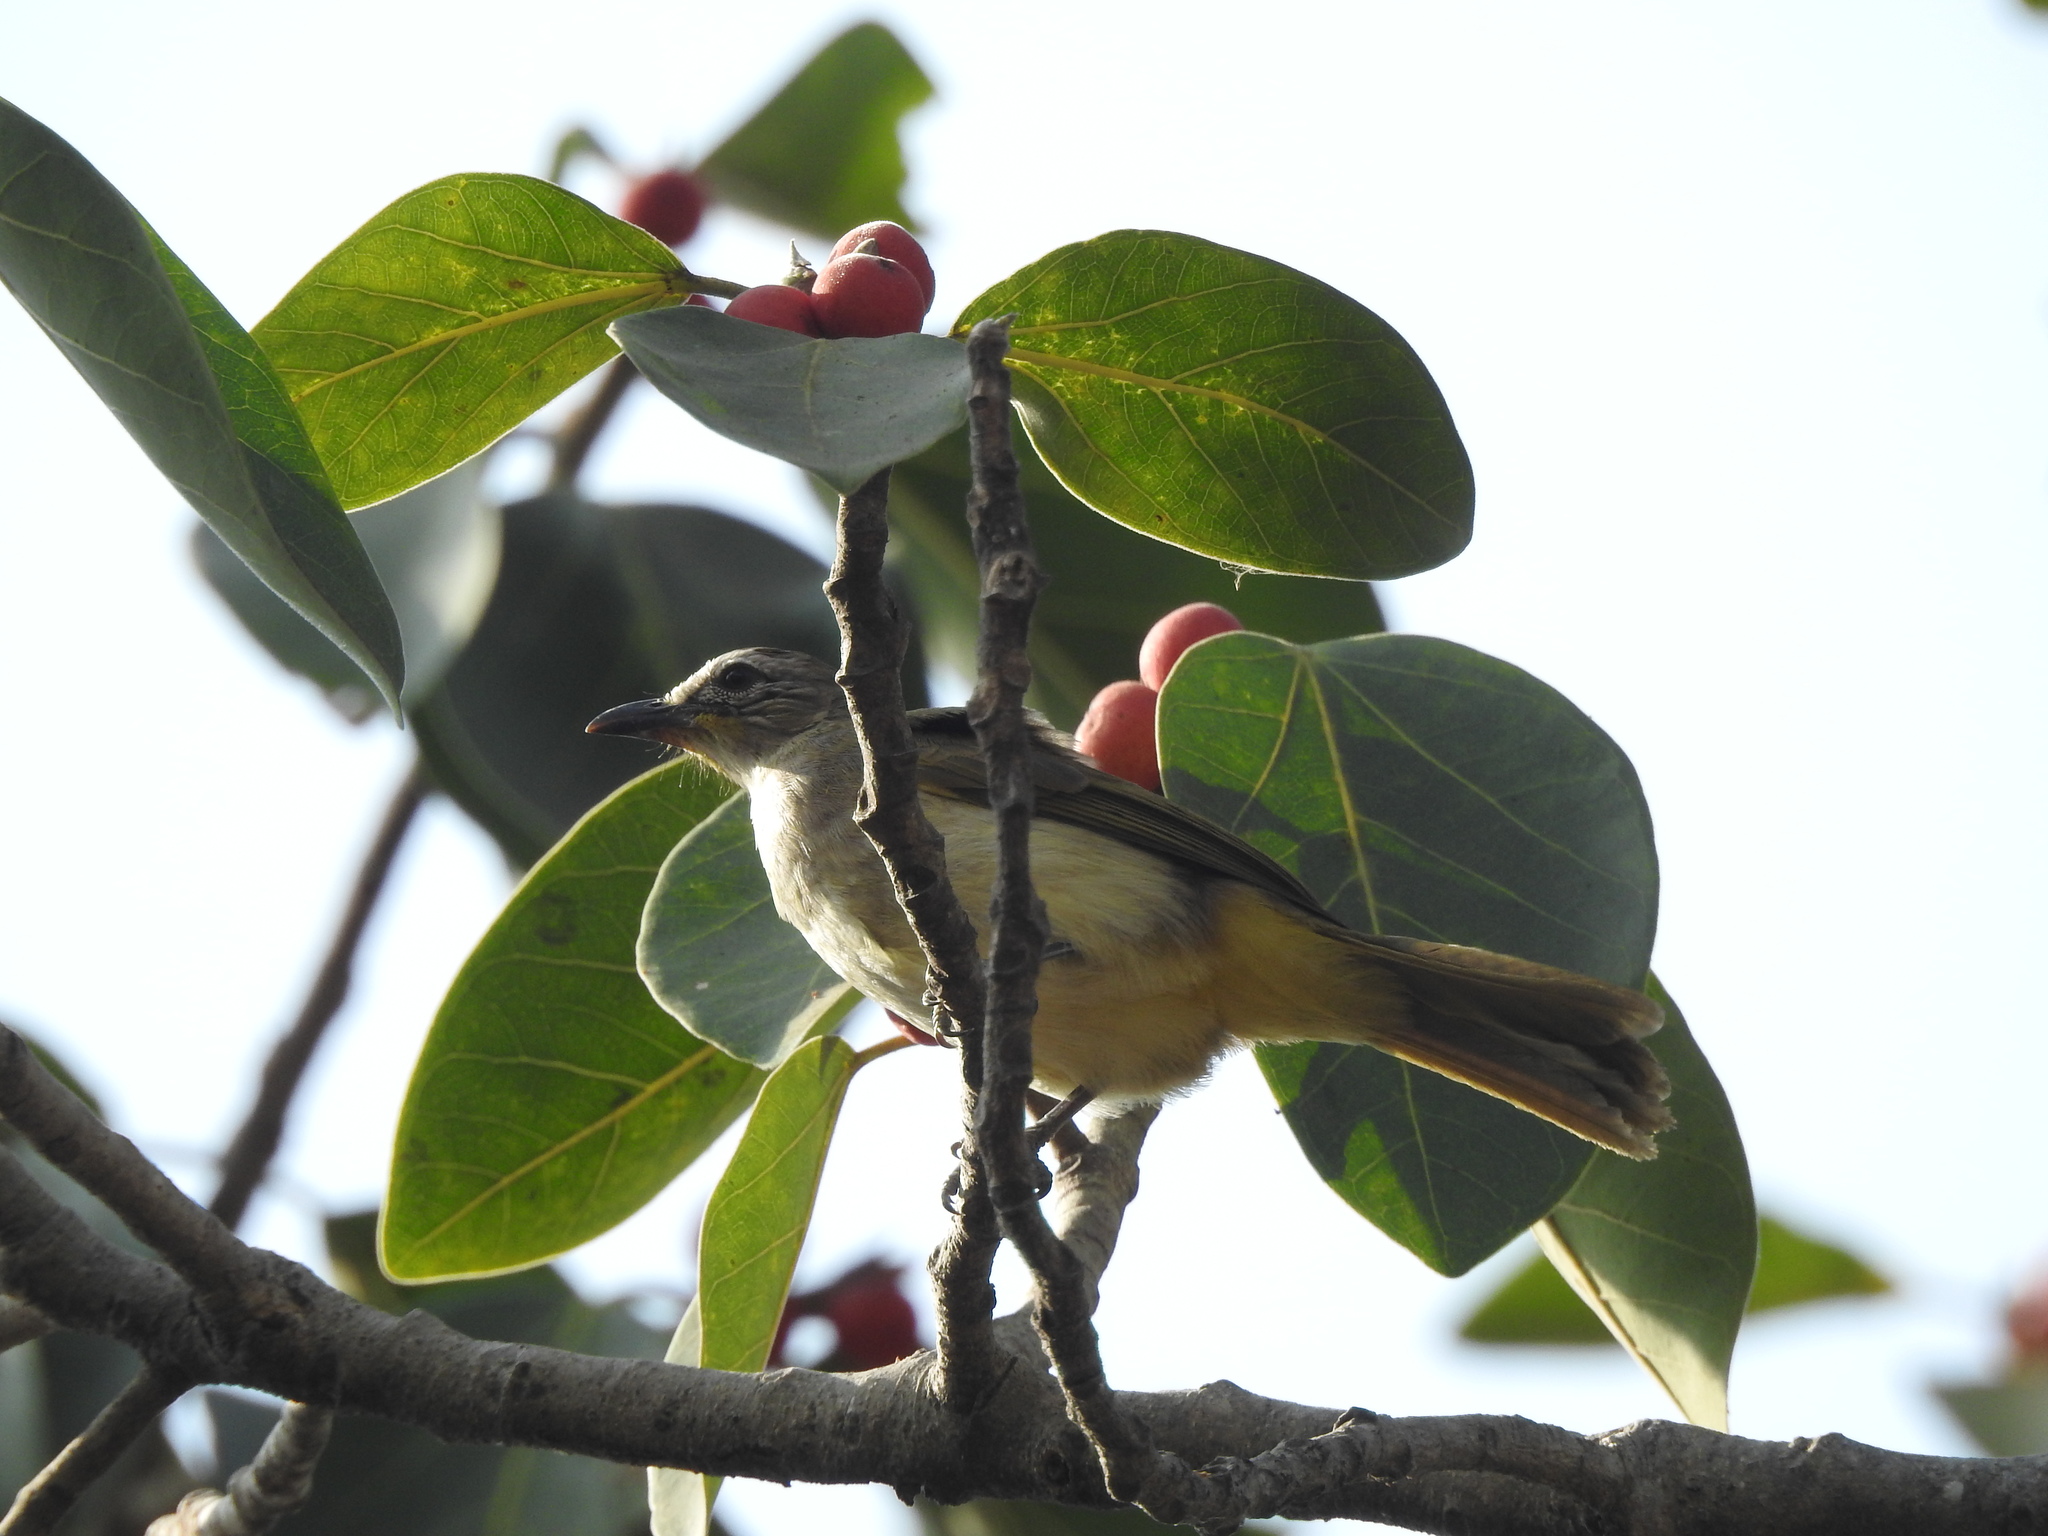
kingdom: Animalia
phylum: Chordata
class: Aves
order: Passeriformes
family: Pycnonotidae
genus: Pycnonotus
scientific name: Pycnonotus luteolus
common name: White-browed bulbul
